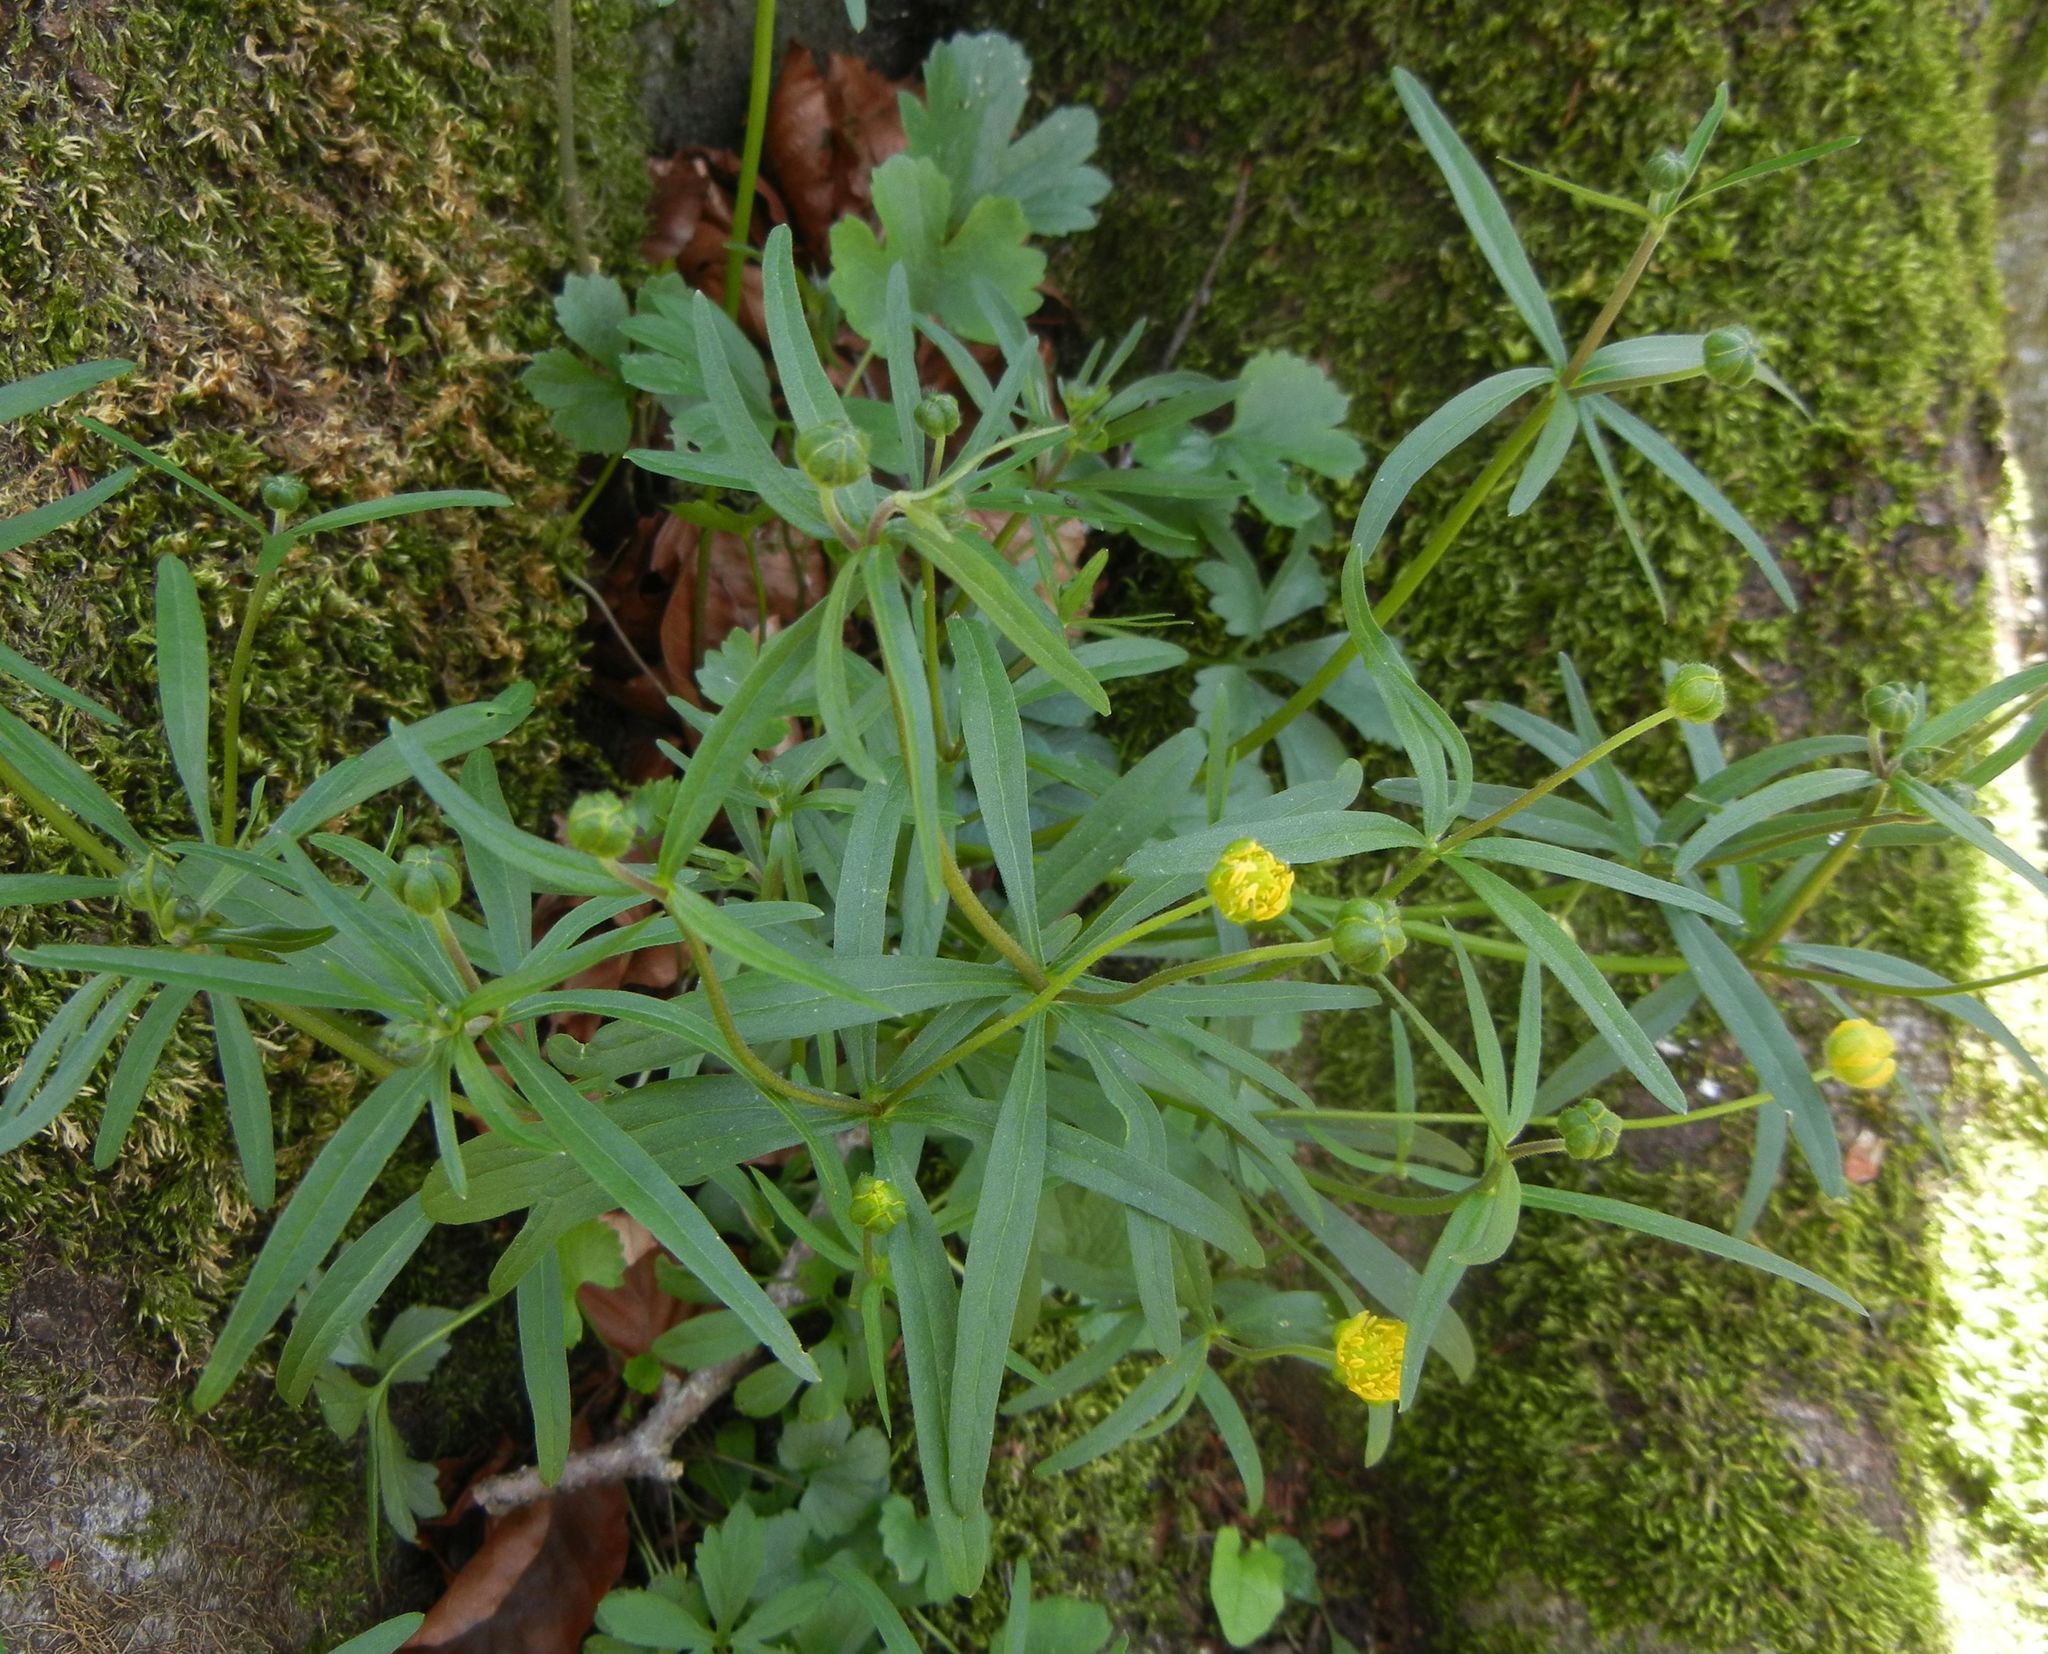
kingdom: Plantae
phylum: Tracheophyta
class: Magnoliopsida
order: Ranunculales
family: Ranunculaceae
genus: Ranunculus
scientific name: Ranunculus auricomus
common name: Goldilocks buttercup
